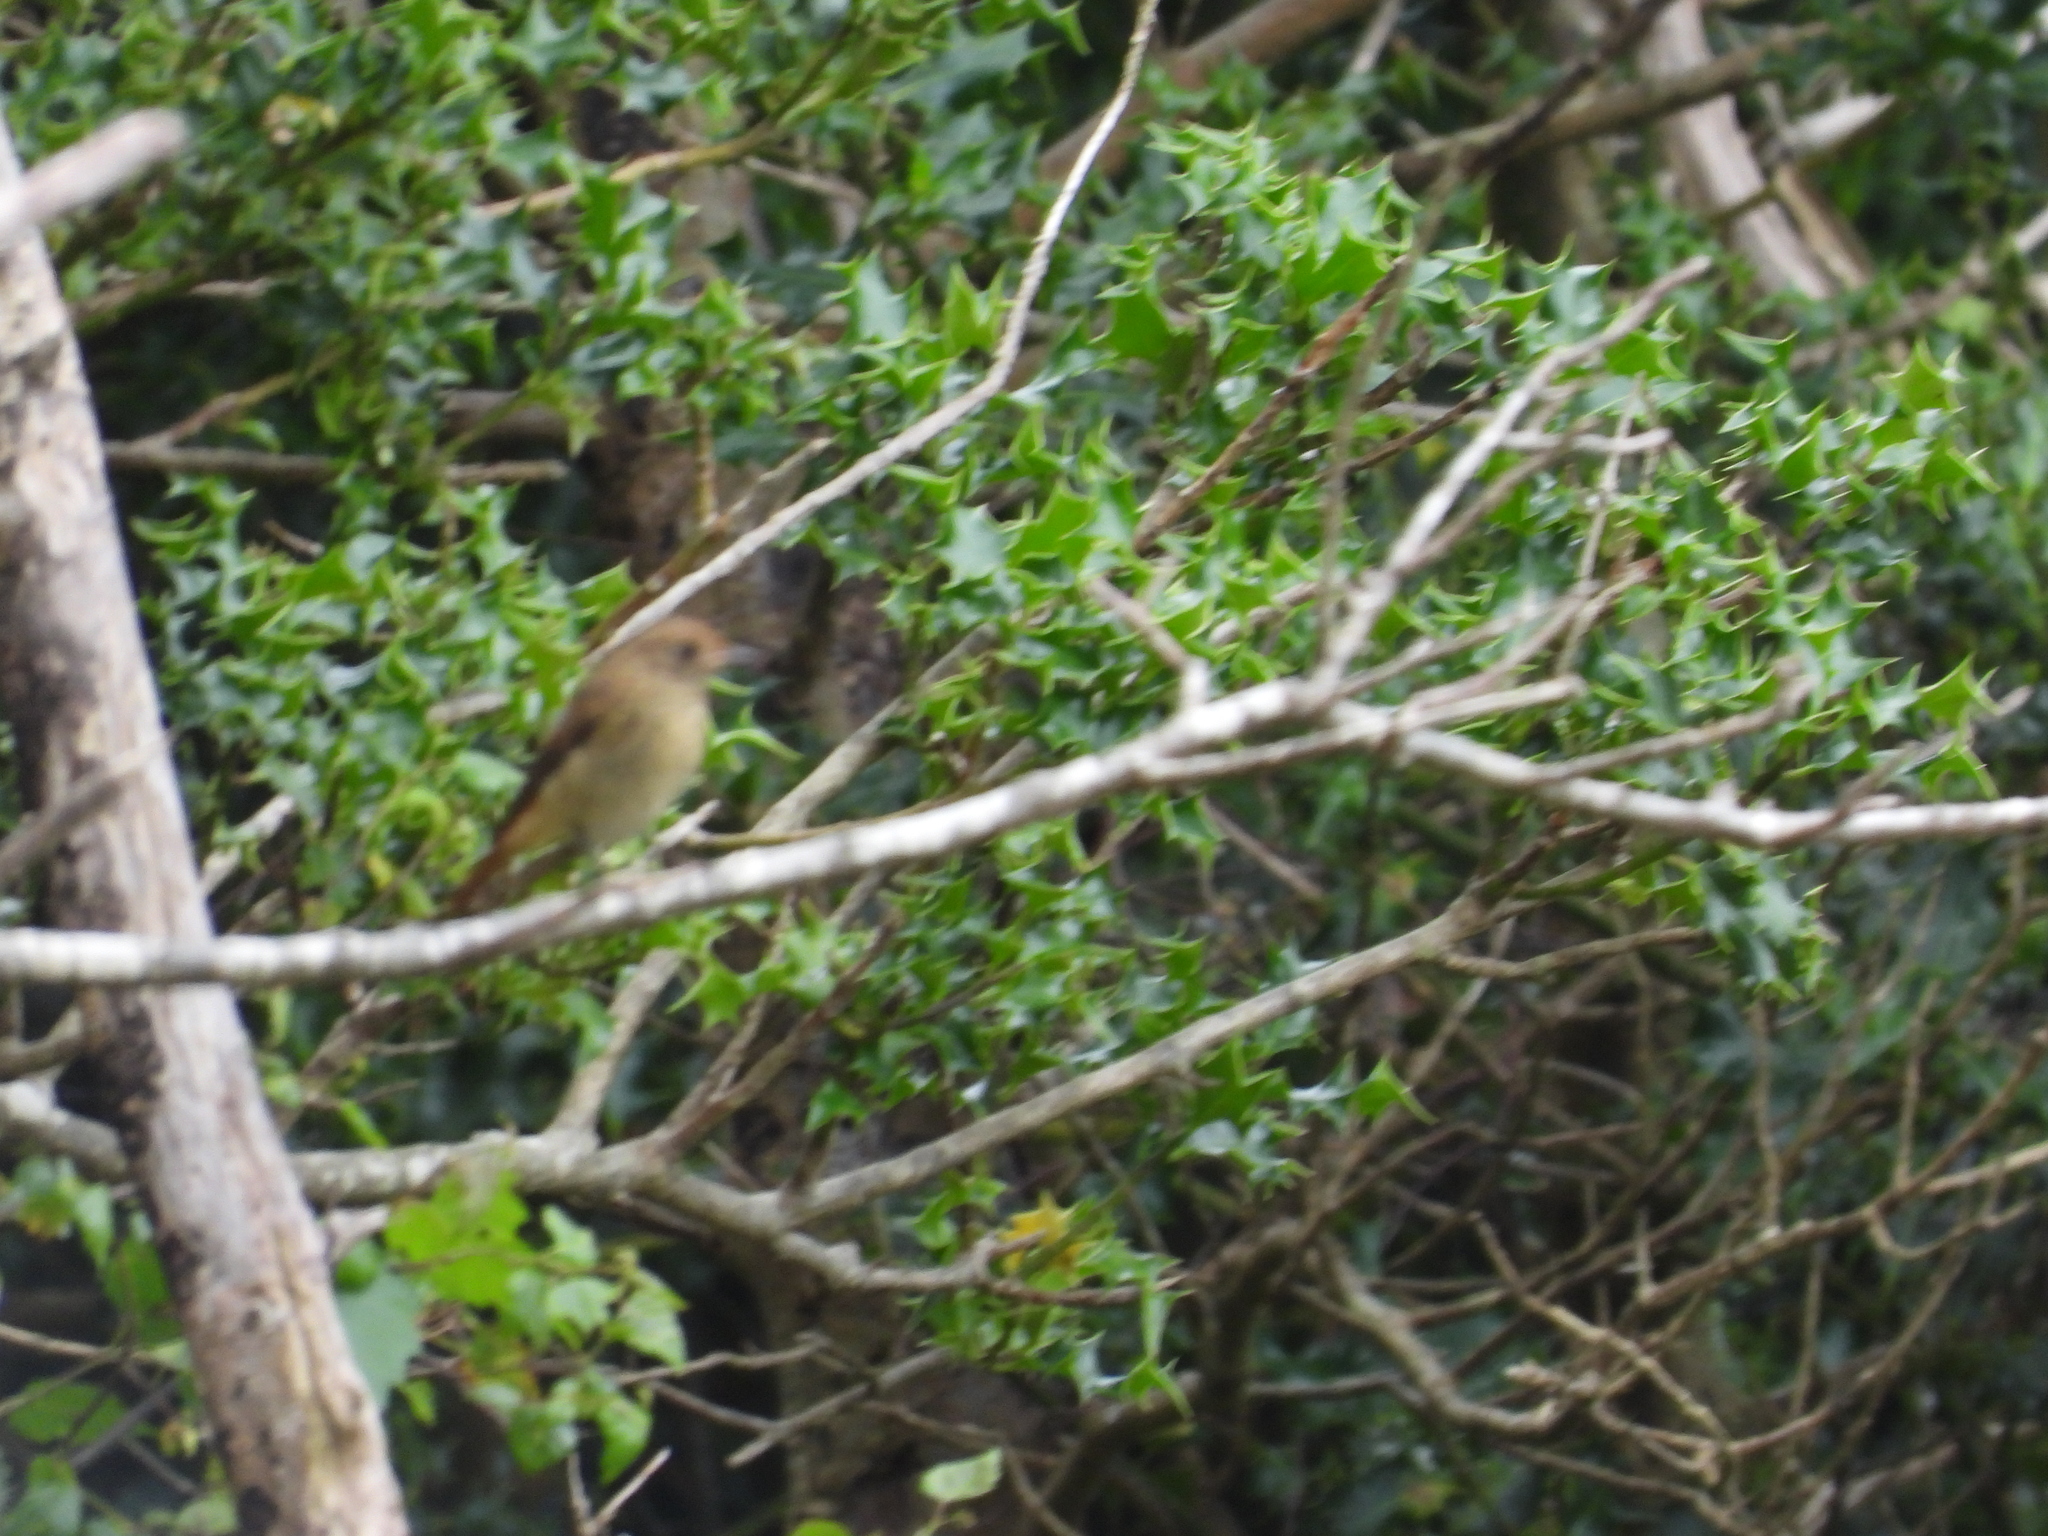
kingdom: Animalia
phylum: Chordata
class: Aves
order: Passeriformes
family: Muscicapidae
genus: Phoenicurus
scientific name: Phoenicurus phoenicurus
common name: Common redstart
